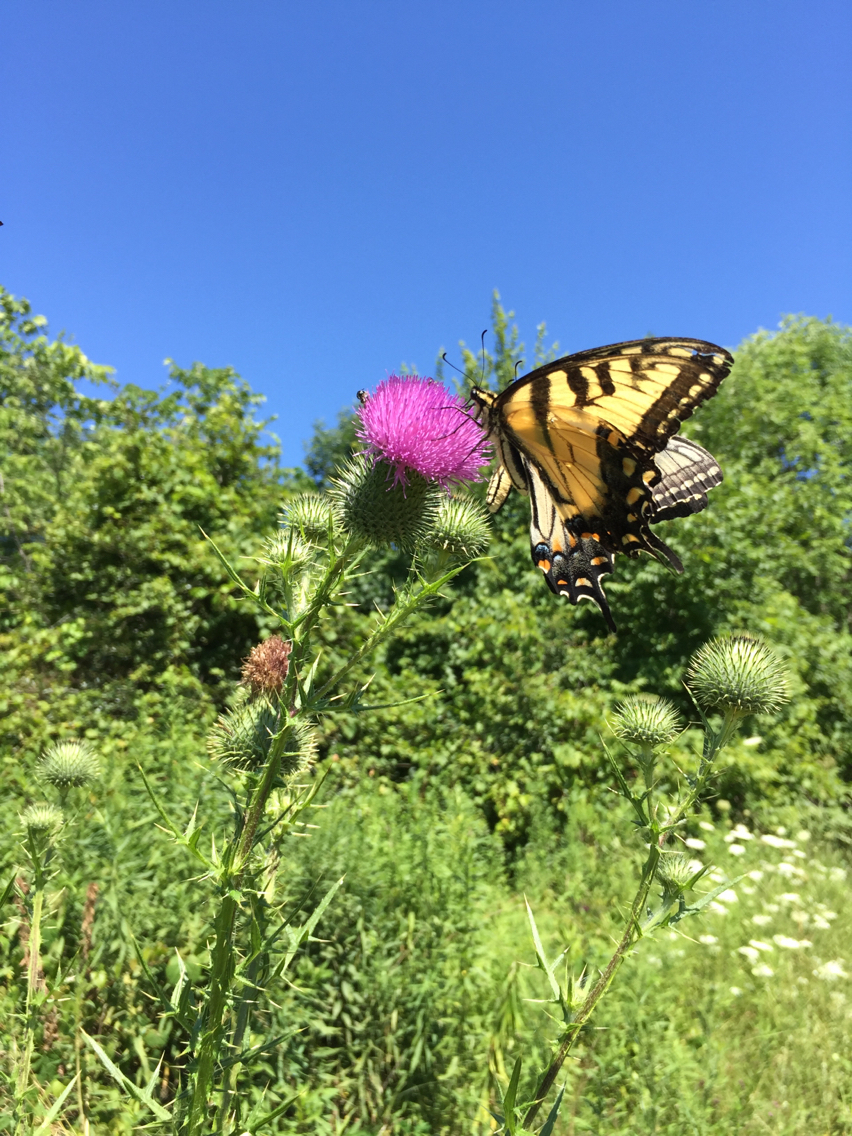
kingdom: Animalia
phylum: Arthropoda
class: Insecta
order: Lepidoptera
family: Papilionidae
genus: Papilio
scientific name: Papilio glaucus
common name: Tiger swallowtail
